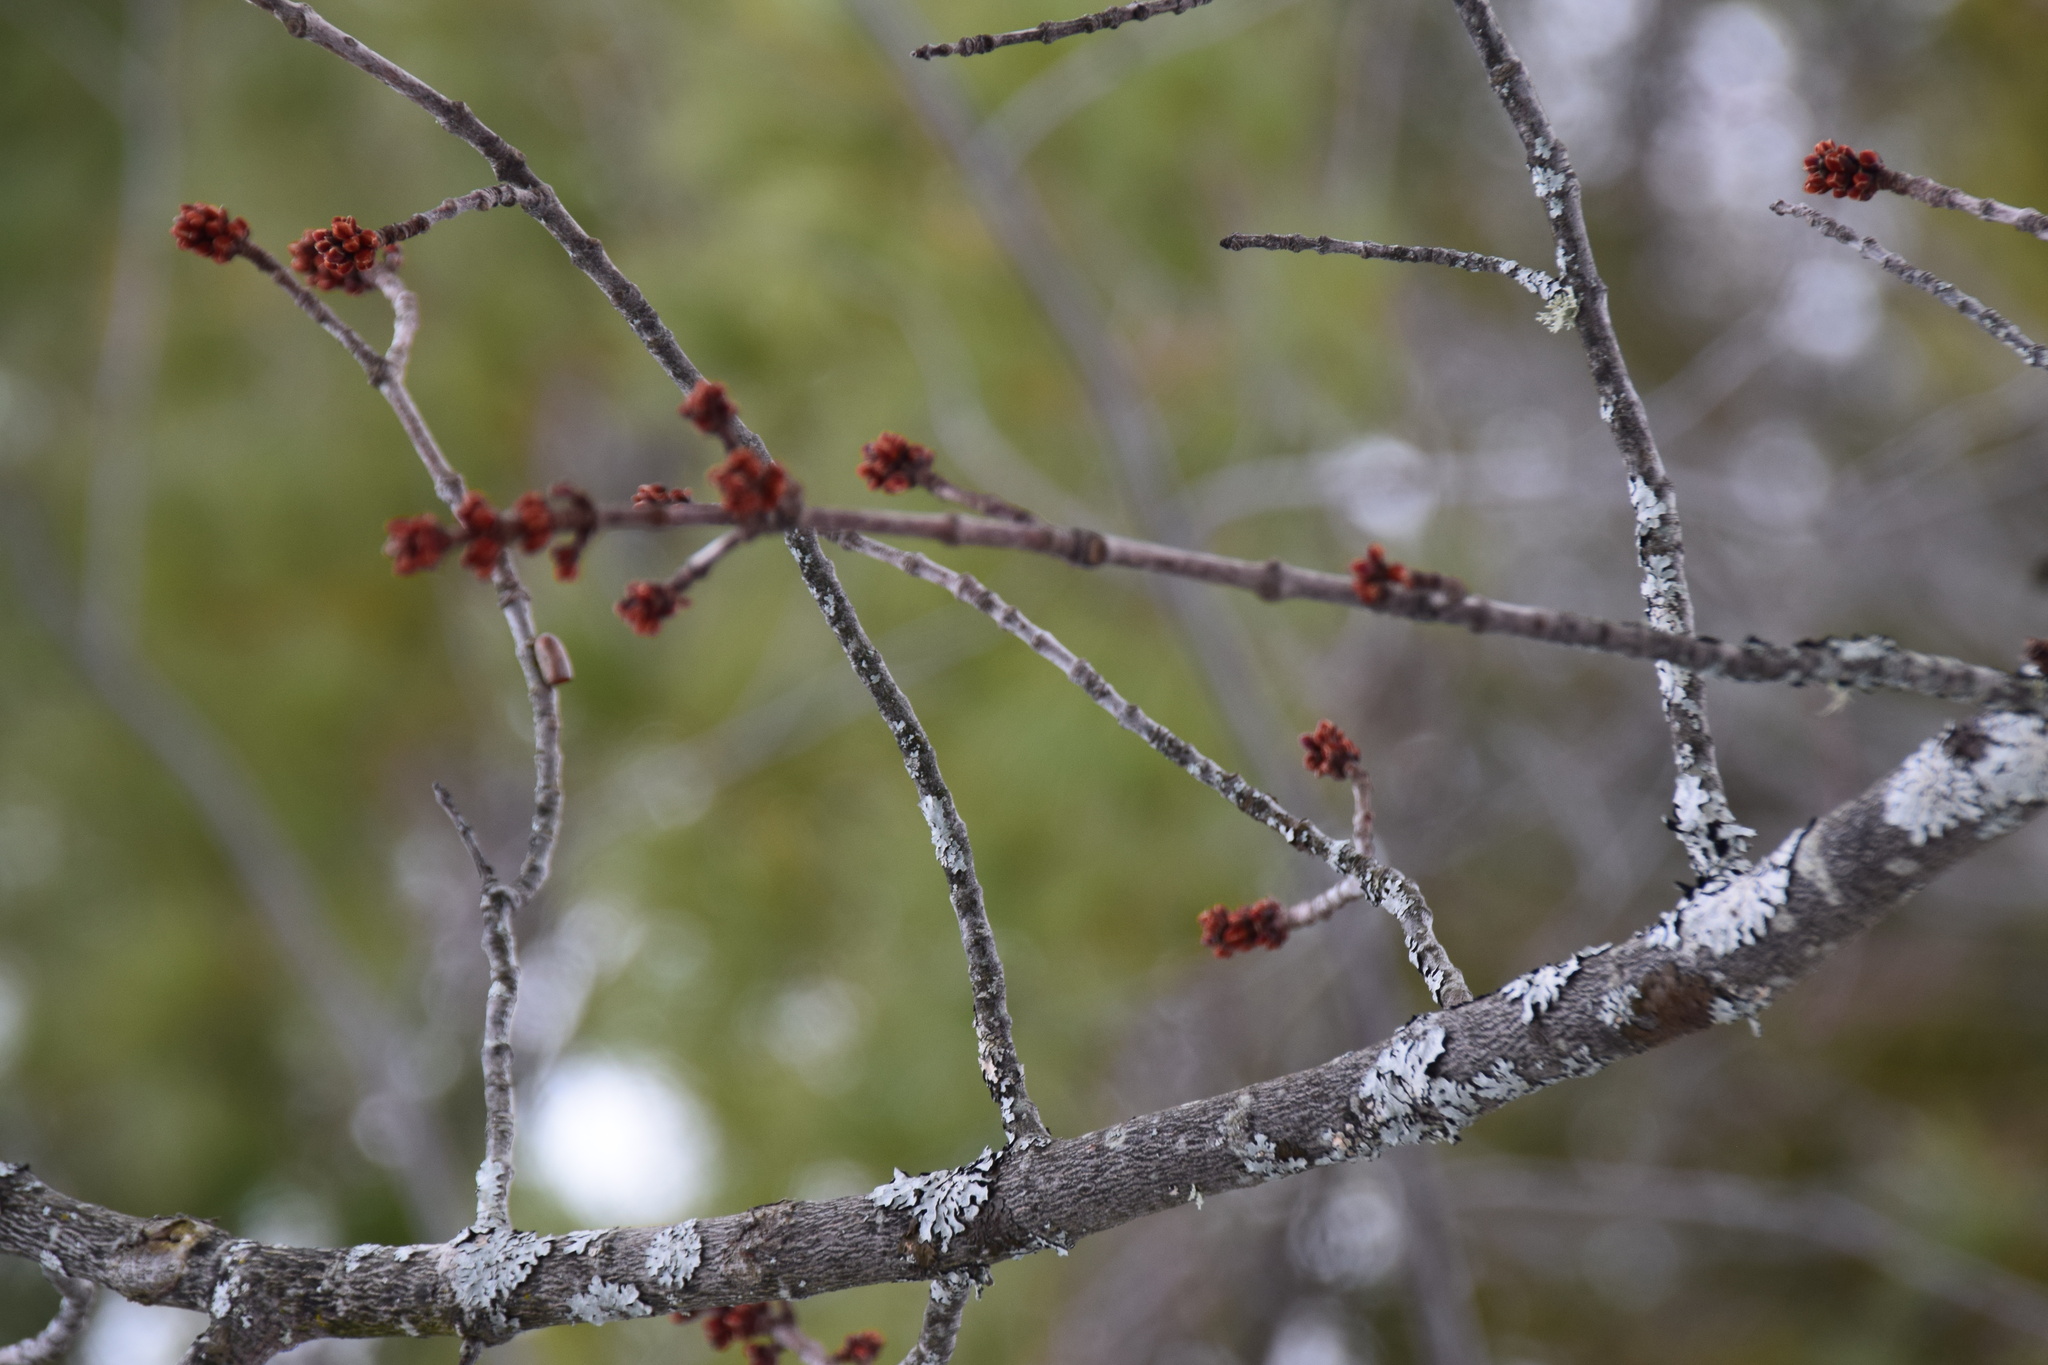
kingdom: Plantae
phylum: Tracheophyta
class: Magnoliopsida
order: Sapindales
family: Sapindaceae
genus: Acer
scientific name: Acer rubrum
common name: Red maple
